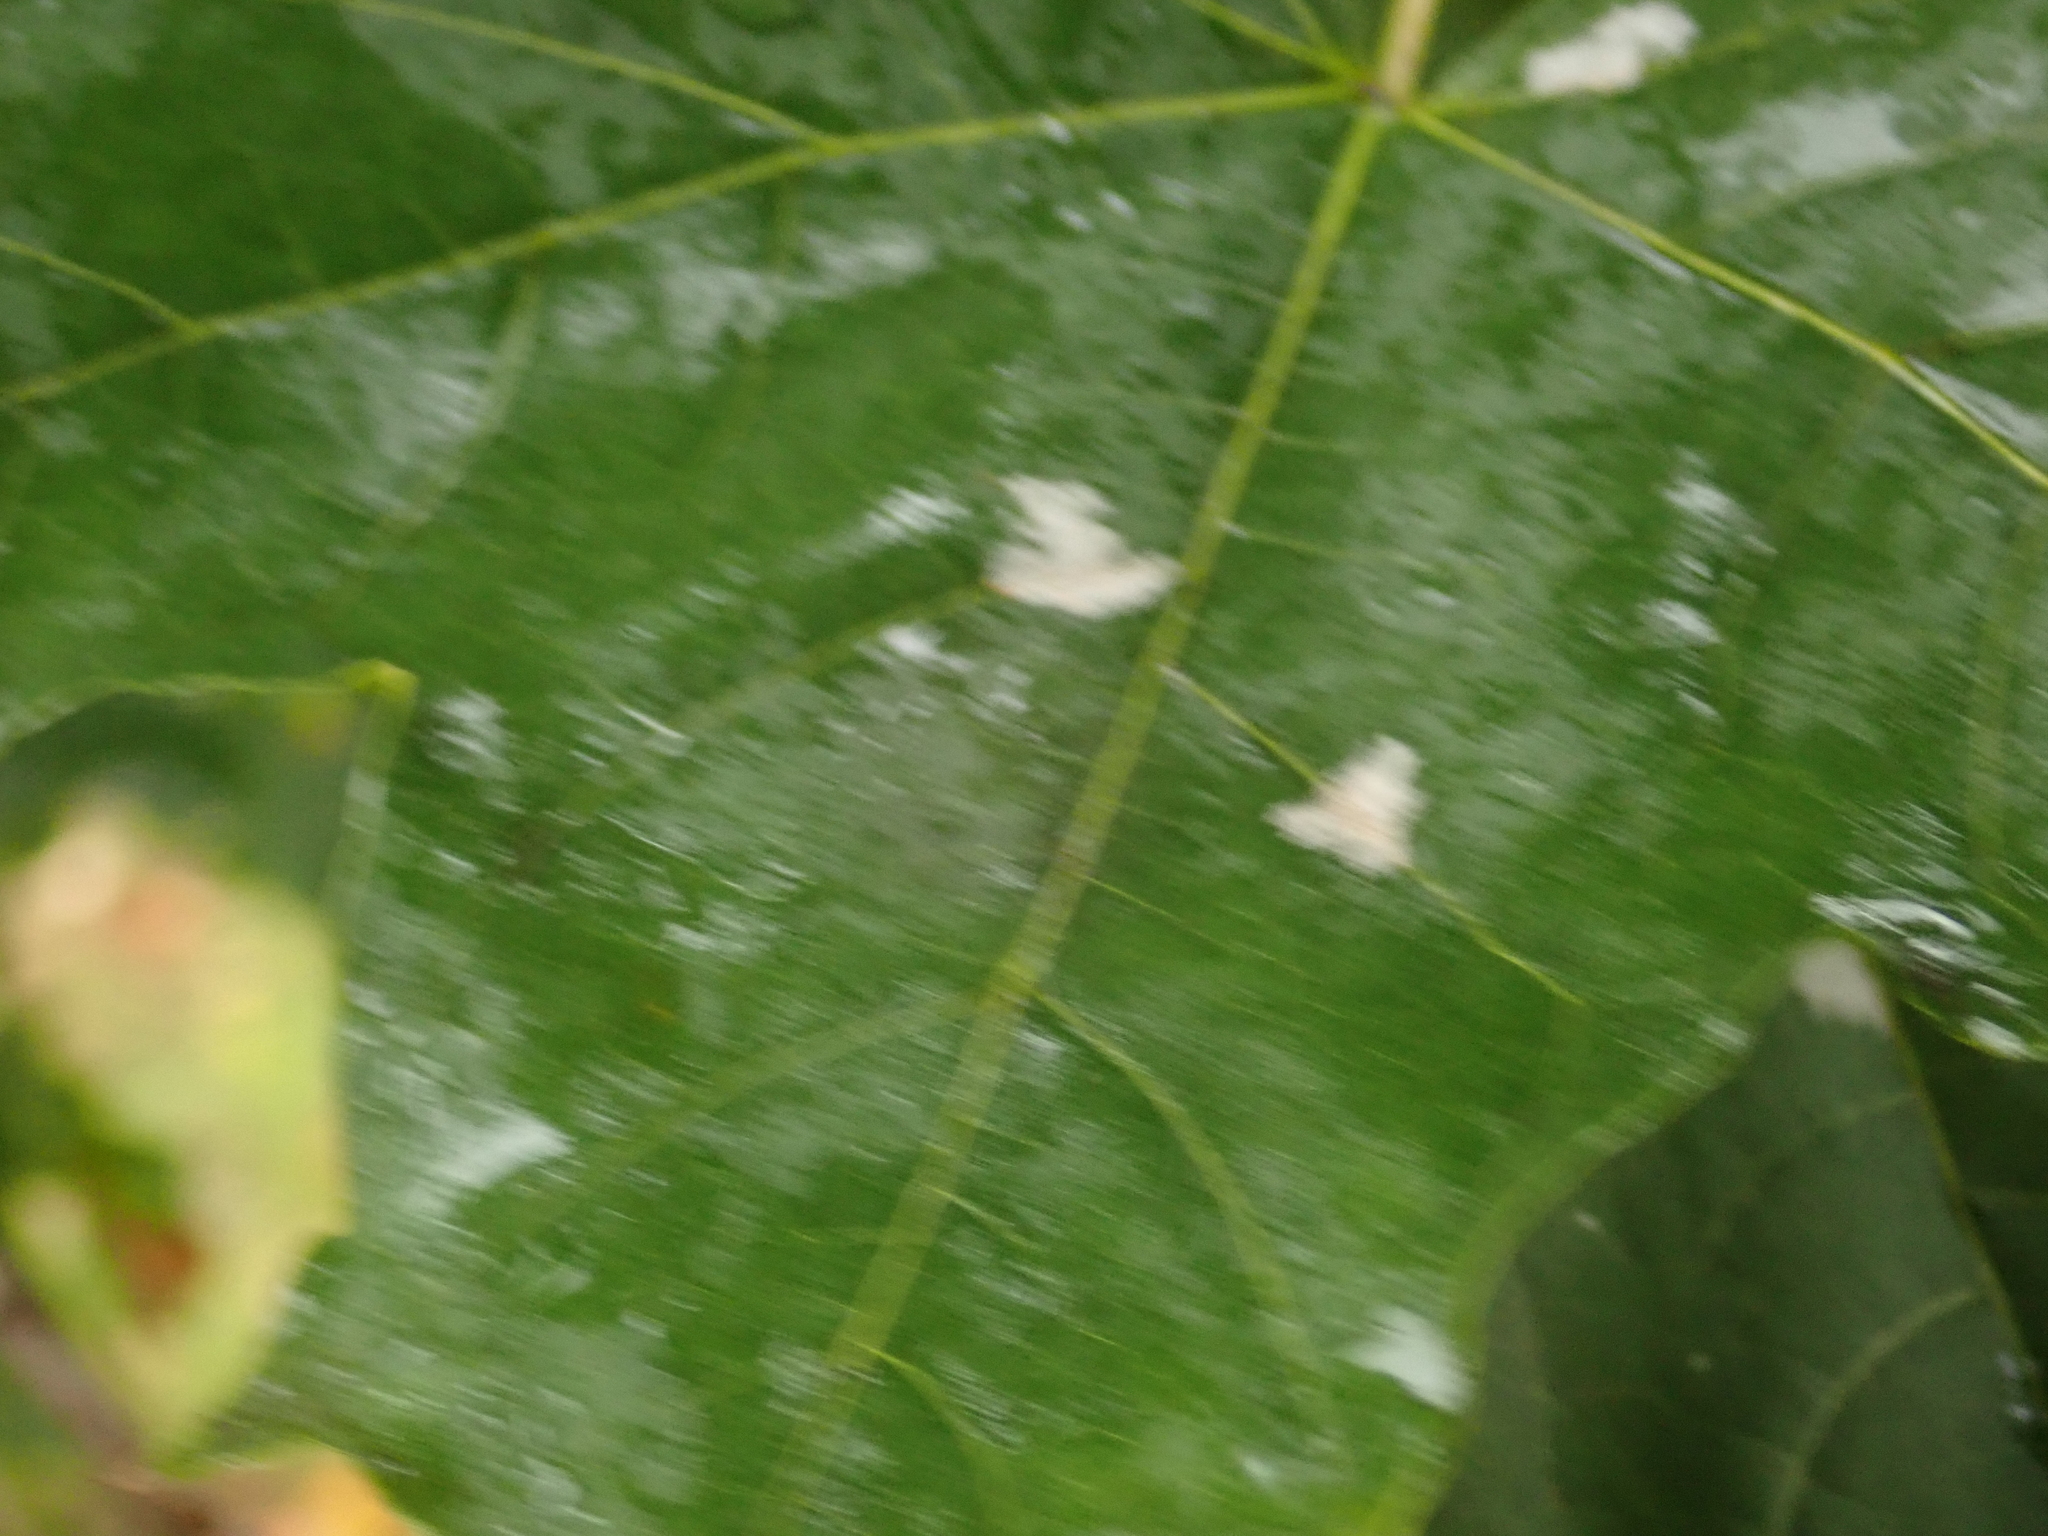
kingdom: Fungi
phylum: Ascomycota
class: Leotiomycetes
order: Helotiales
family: Erysiphaceae
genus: Sawadaea
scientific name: Sawadaea tulasnei
